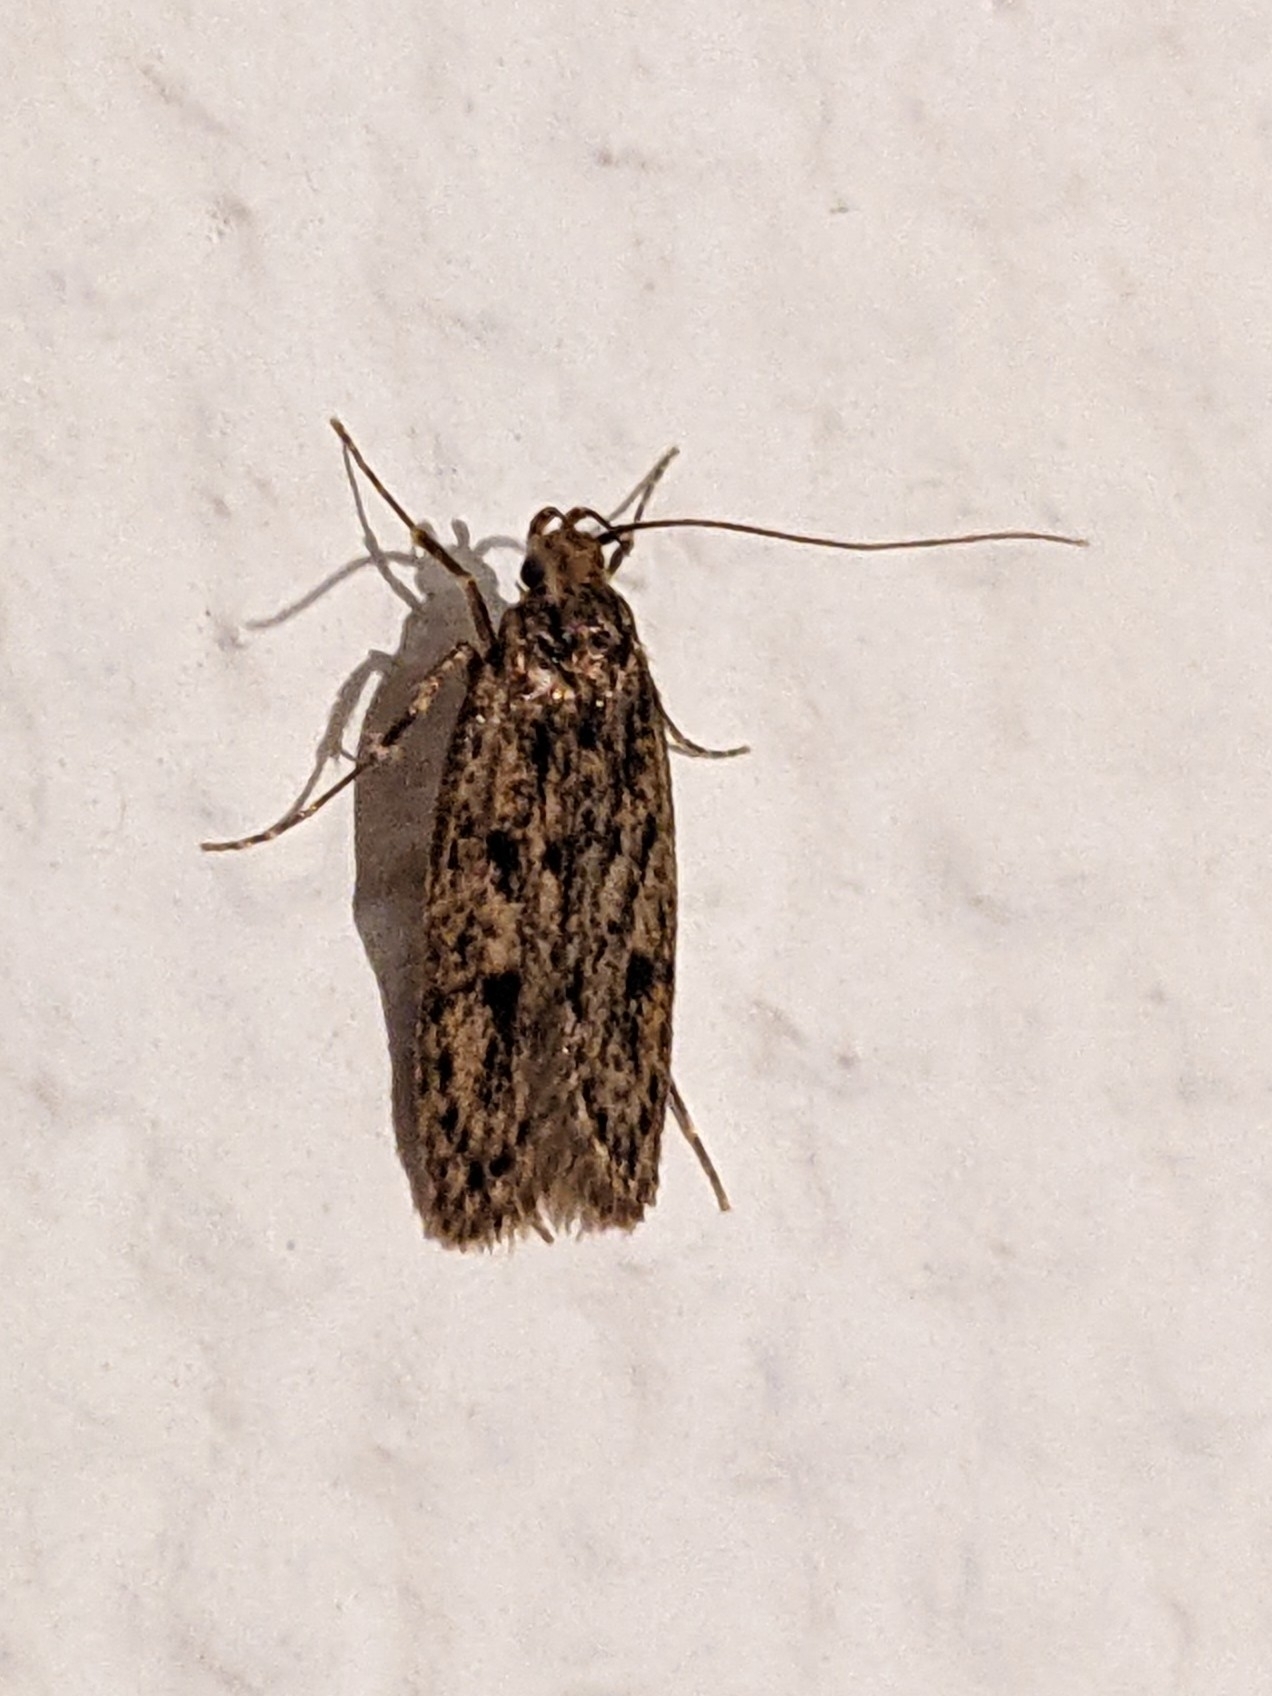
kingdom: Animalia
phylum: Arthropoda
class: Insecta
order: Lepidoptera
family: Oecophoridae
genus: Hofmannophila
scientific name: Hofmannophila pseudospretella
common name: Brown house moth
